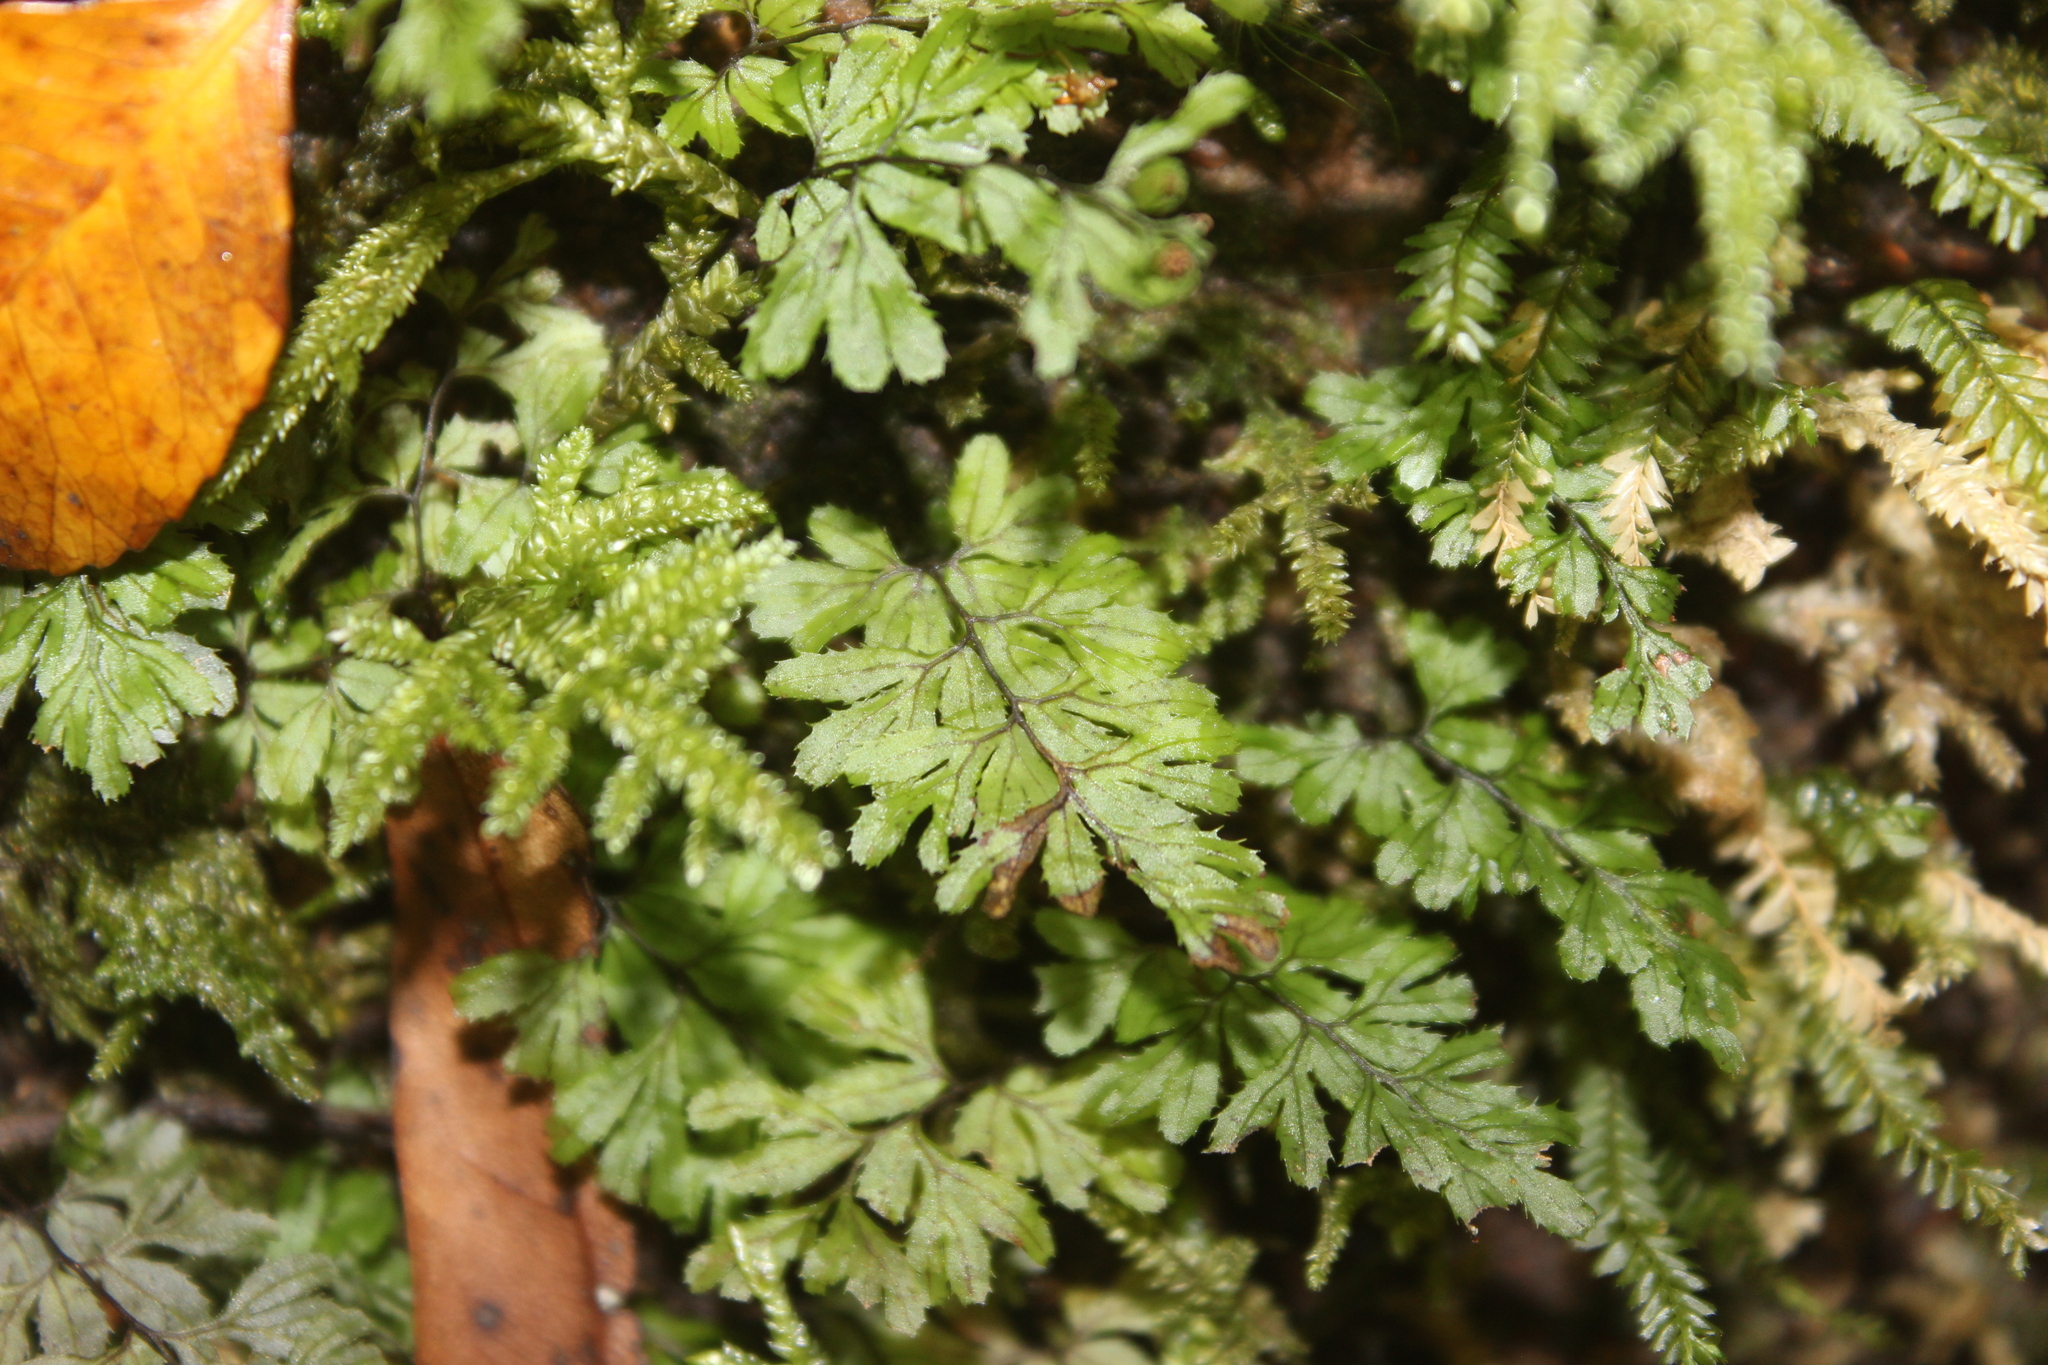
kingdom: Plantae
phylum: Tracheophyta
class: Polypodiopsida
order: Hymenophyllales
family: Hymenophyllaceae
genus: Hymenophyllum
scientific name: Hymenophyllum revolutum
